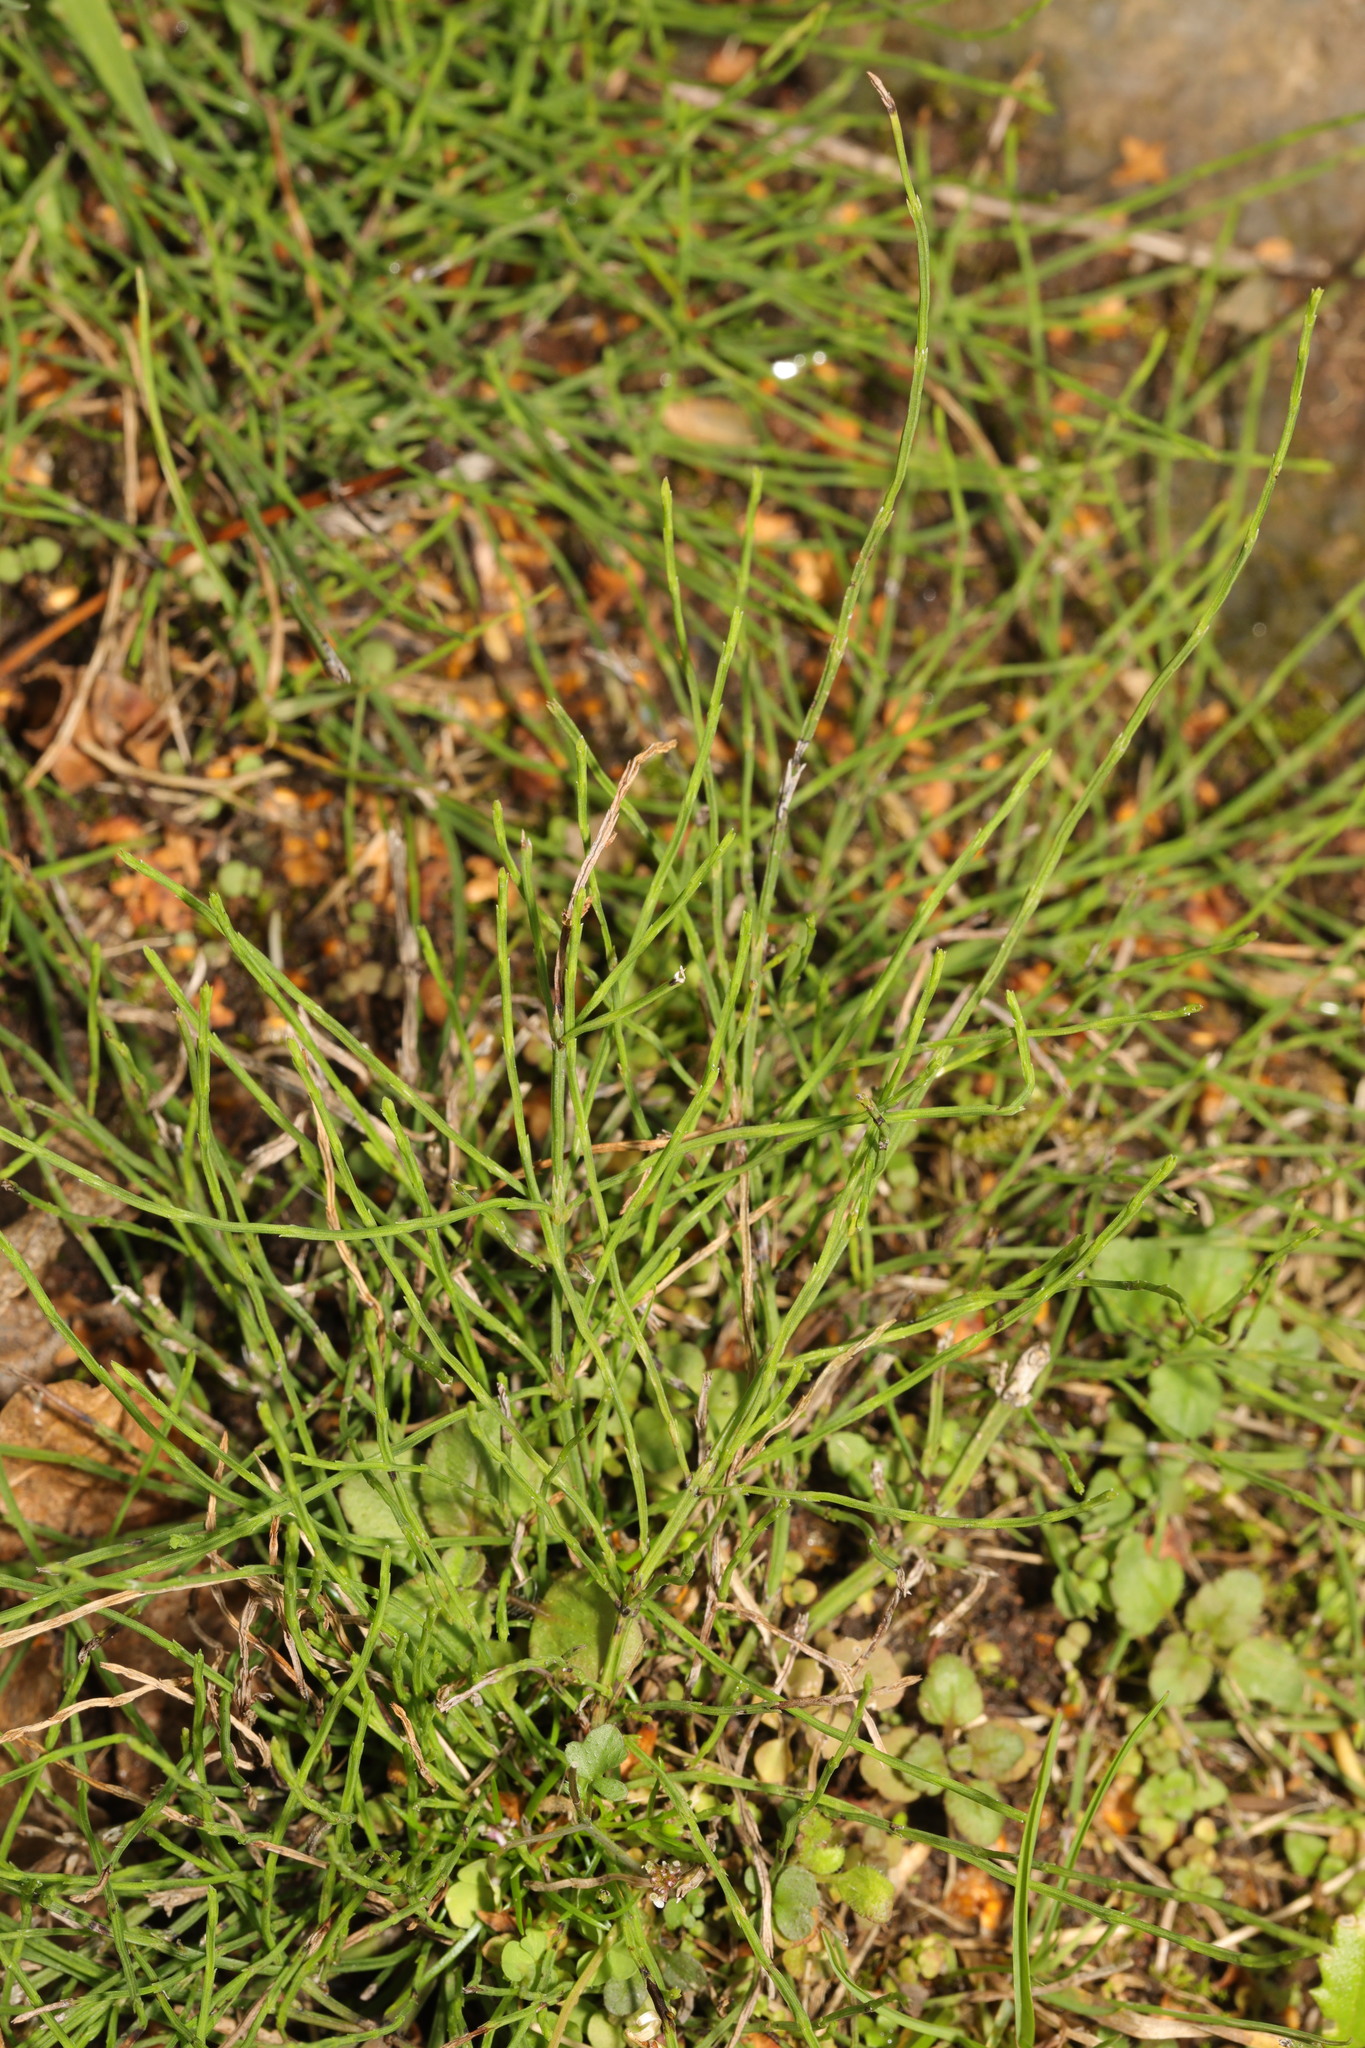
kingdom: Plantae
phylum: Tracheophyta
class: Polypodiopsida
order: Equisetales
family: Equisetaceae
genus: Equisetum
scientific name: Equisetum arvense
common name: Field horsetail
